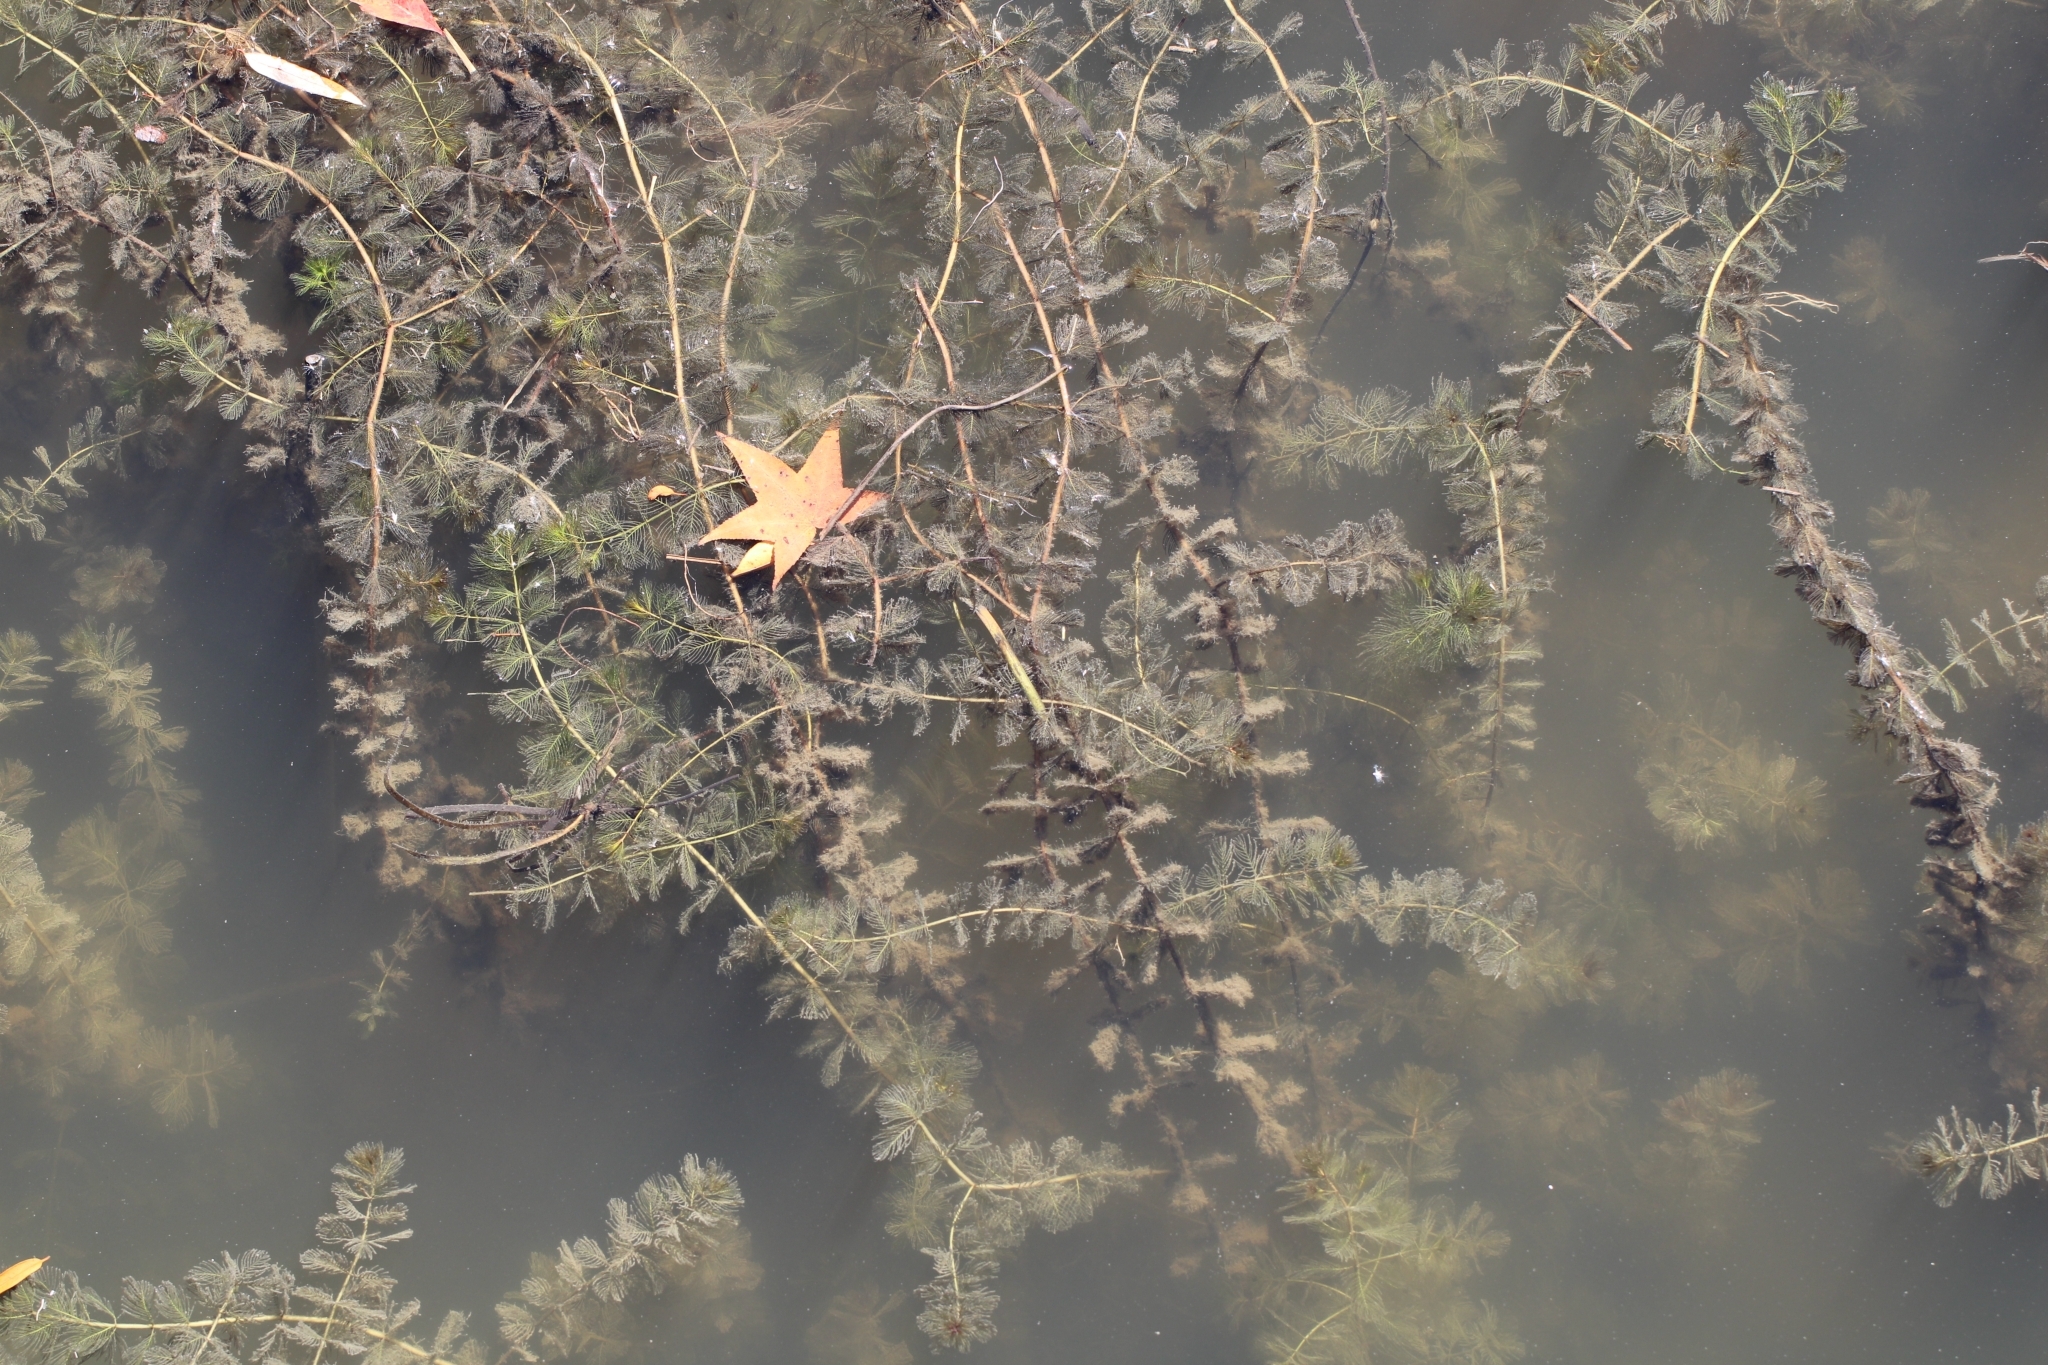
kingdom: Plantae
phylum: Tracheophyta
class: Magnoliopsida
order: Saxifragales
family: Haloragaceae
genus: Myriophyllum
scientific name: Myriophyllum spicatum
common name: Spiked water-milfoil
